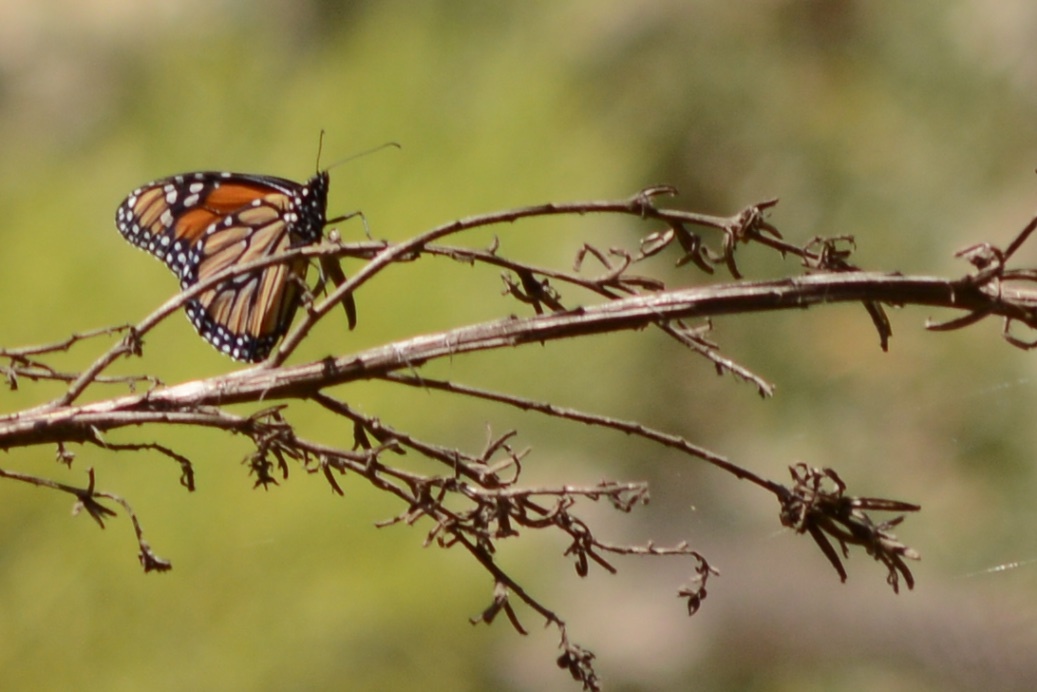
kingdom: Animalia
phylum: Arthropoda
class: Insecta
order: Lepidoptera
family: Nymphalidae
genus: Danaus
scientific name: Danaus plexippus
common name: Monarch
